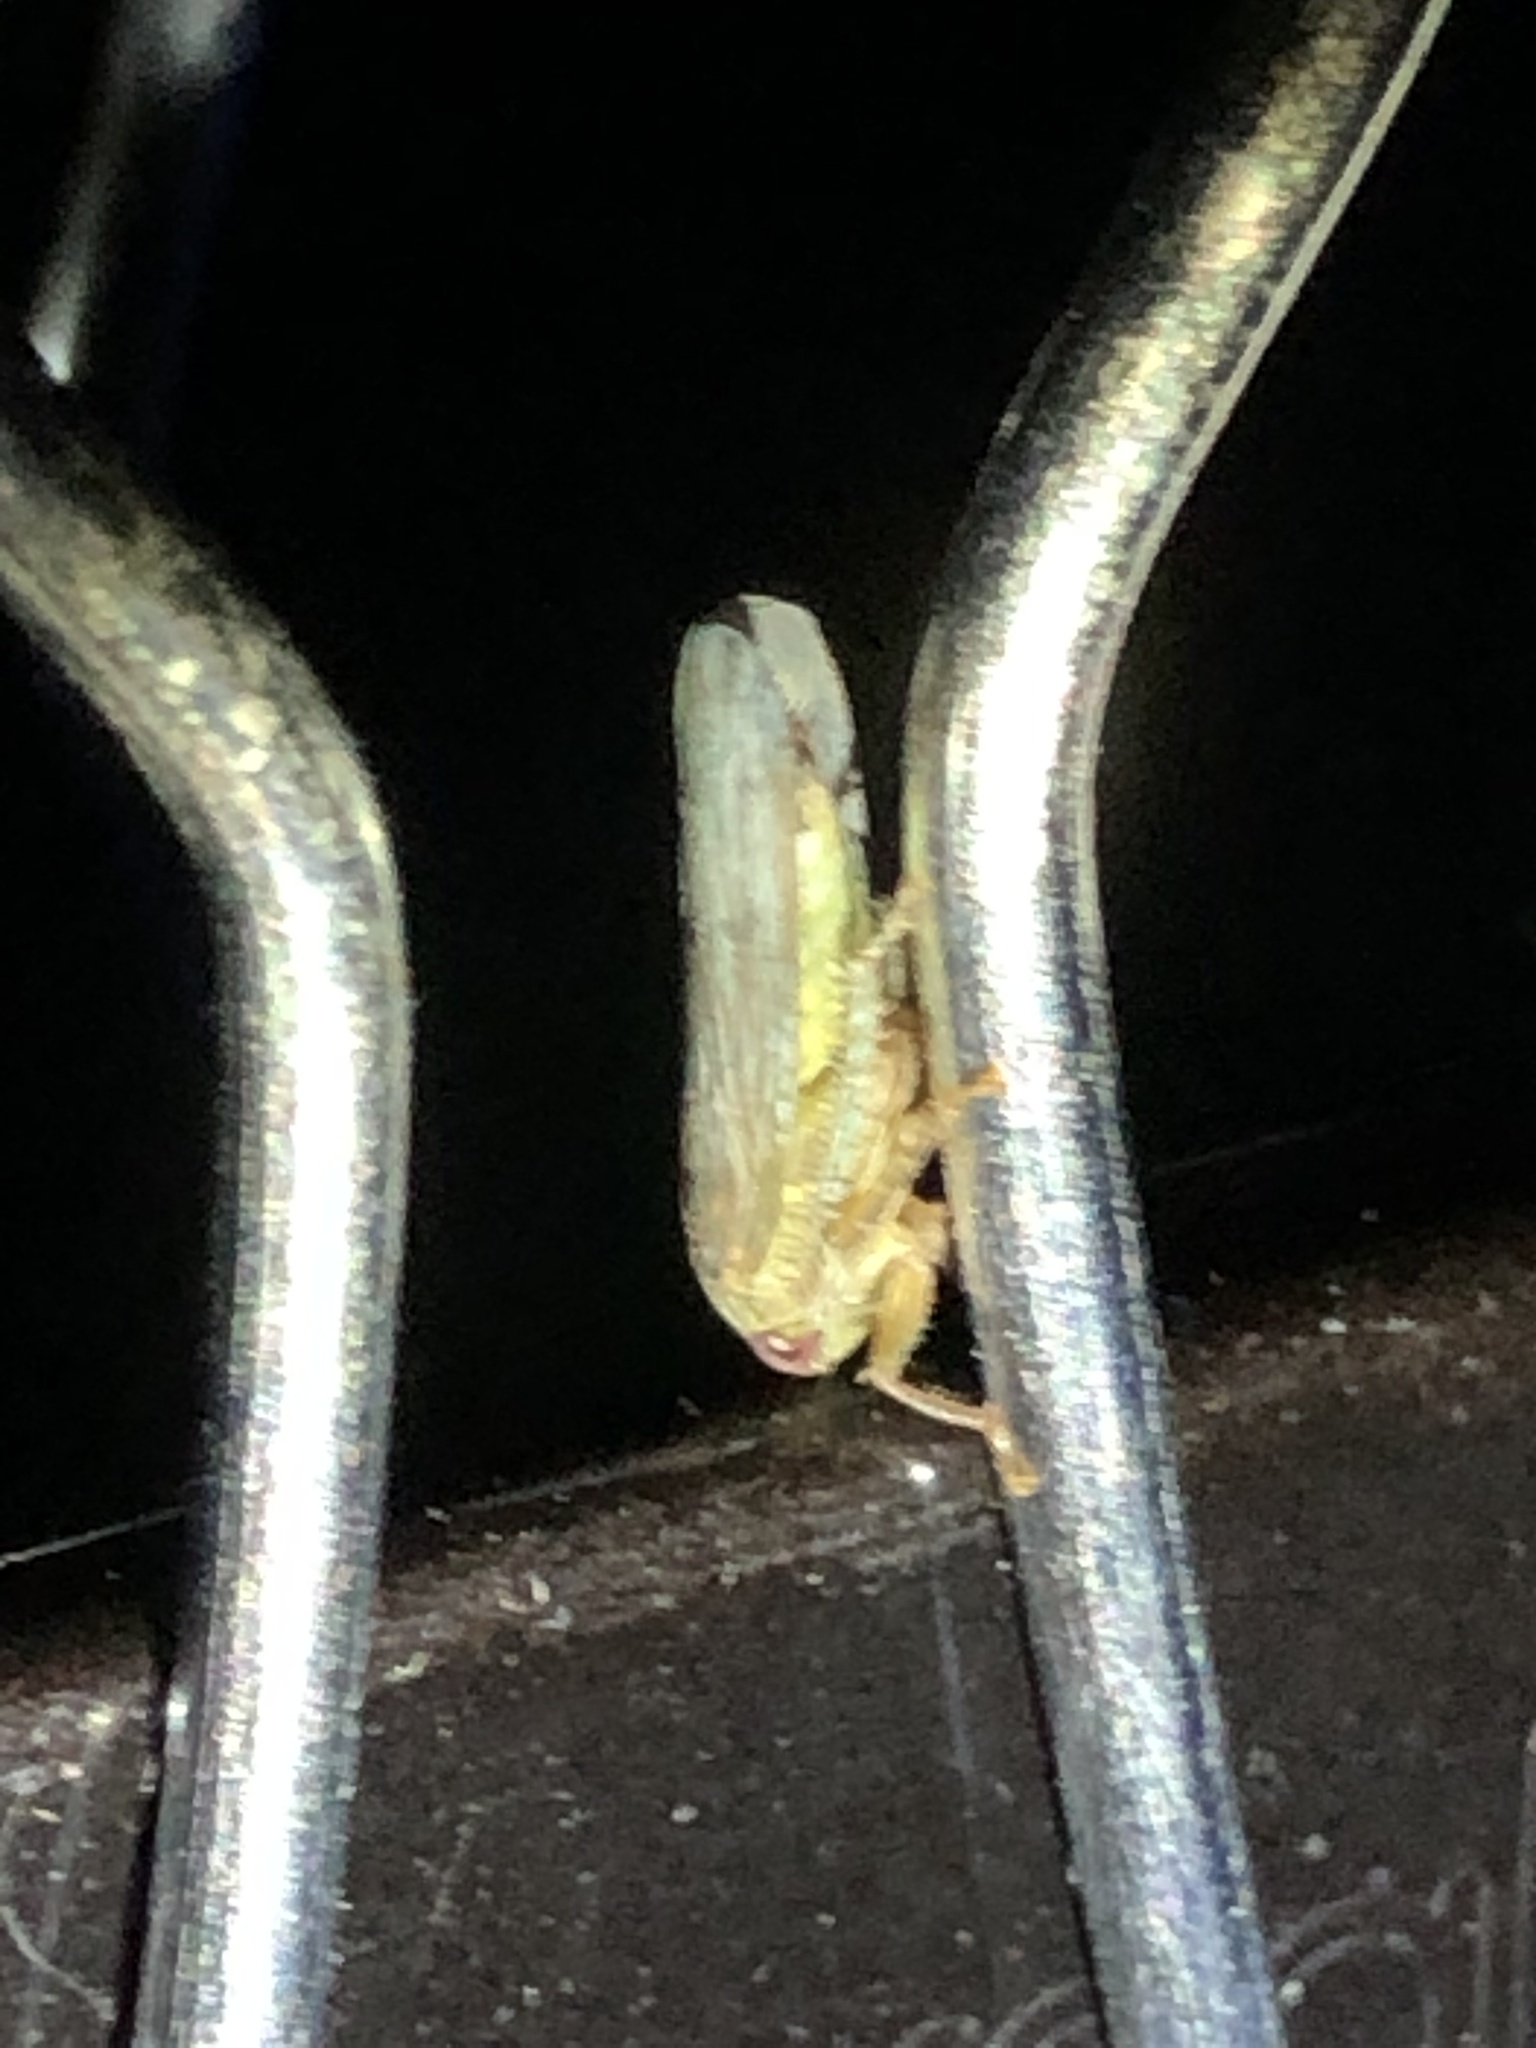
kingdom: Animalia
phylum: Arthropoda
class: Insecta
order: Hemiptera
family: Cicadellidae
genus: Polana
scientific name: Polana quadrinotata
